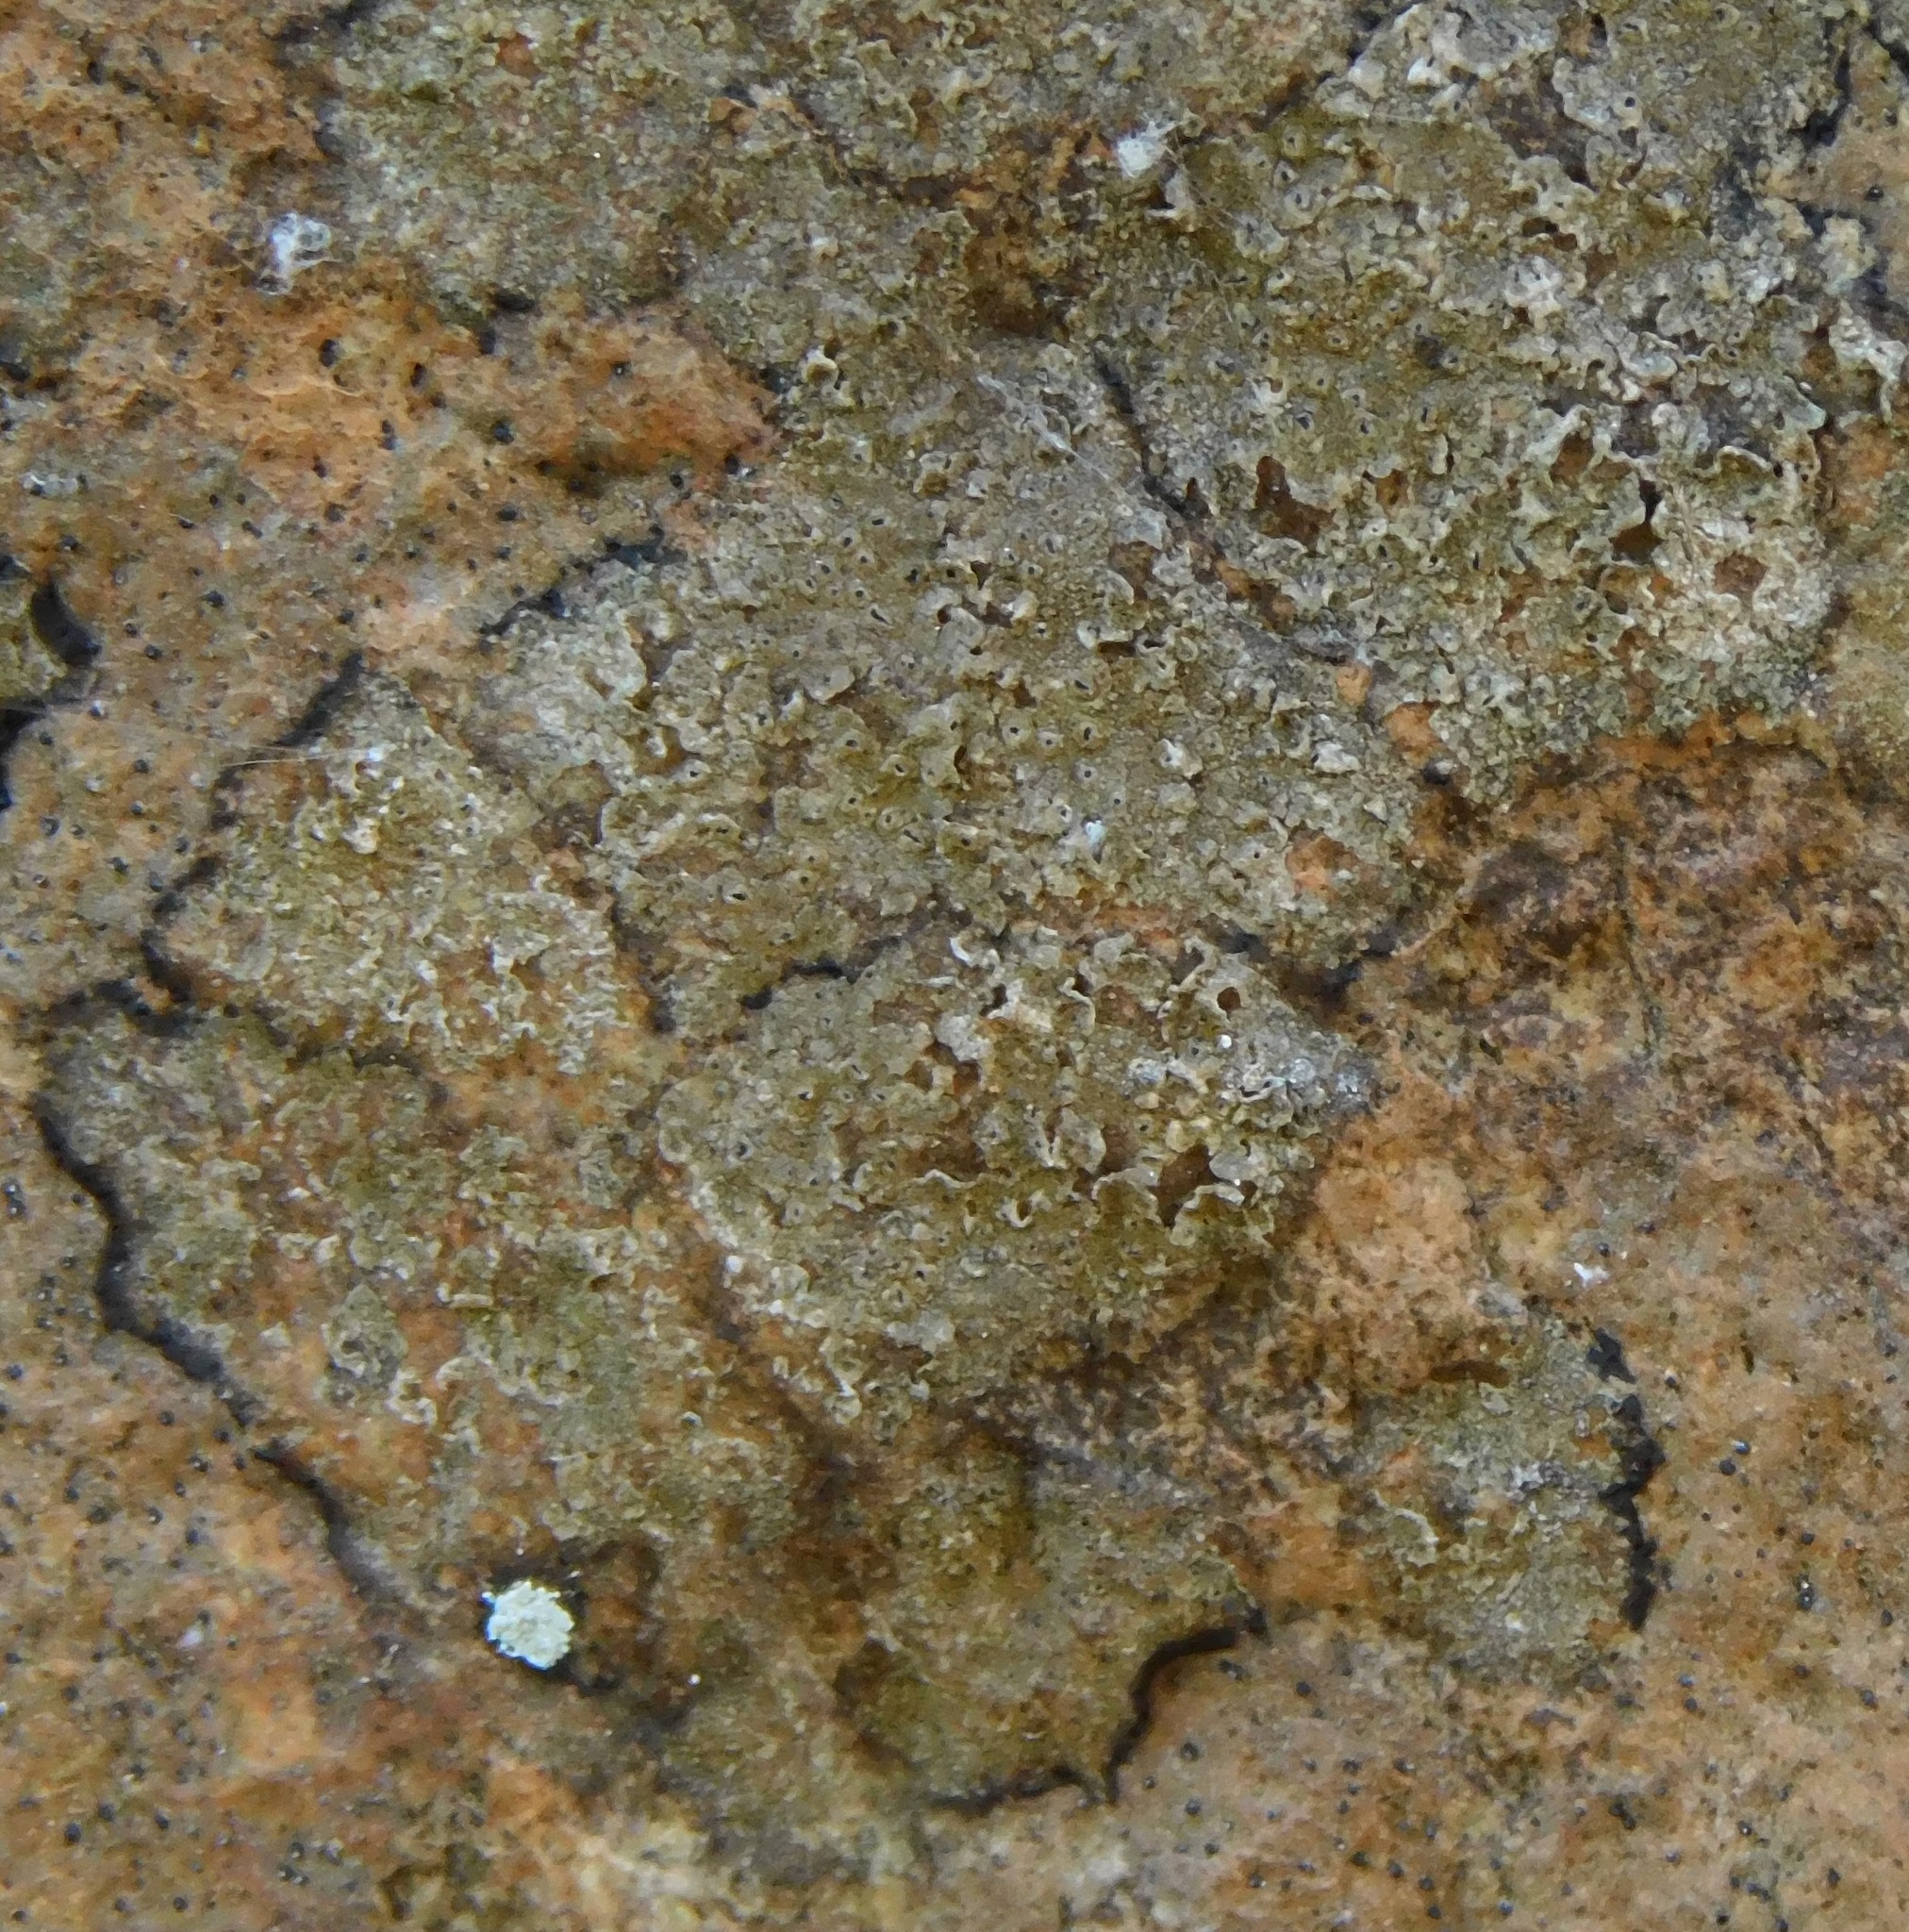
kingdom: Fungi
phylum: Ascomycota
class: Arthoniomycetes
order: Arthoniales
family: Roccellaceae
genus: Enterographa
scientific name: Enterographa hutchinsiae
